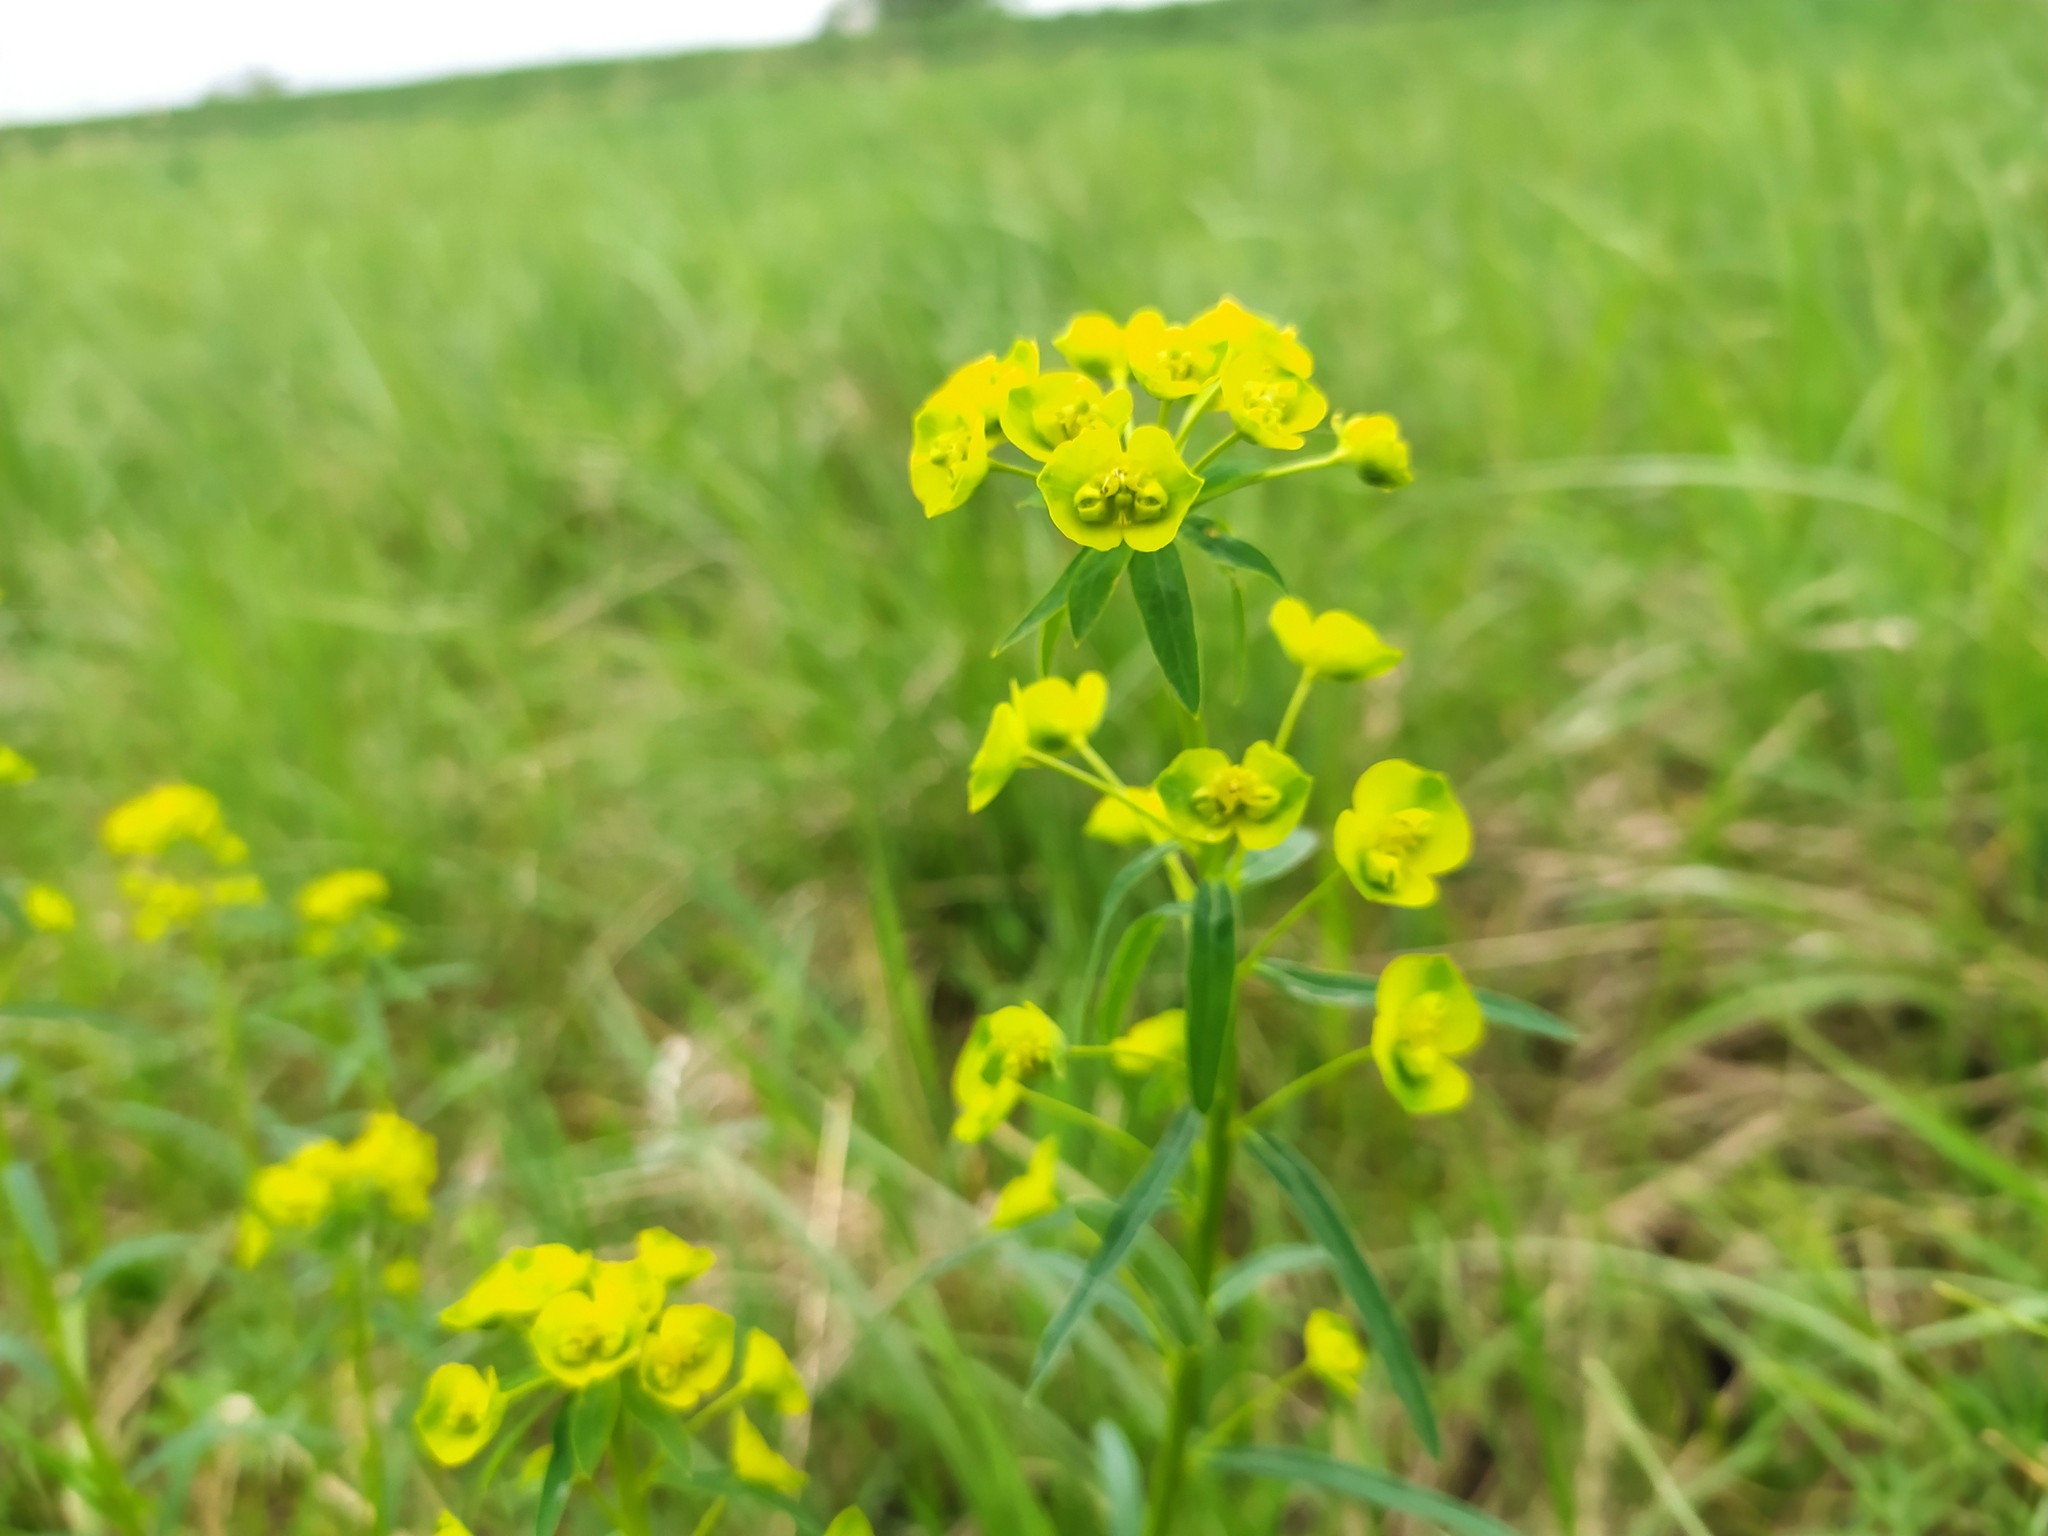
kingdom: Plantae
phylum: Tracheophyta
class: Magnoliopsida
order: Malpighiales
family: Euphorbiaceae
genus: Euphorbia
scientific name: Euphorbia esula
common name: Leafy spurge
